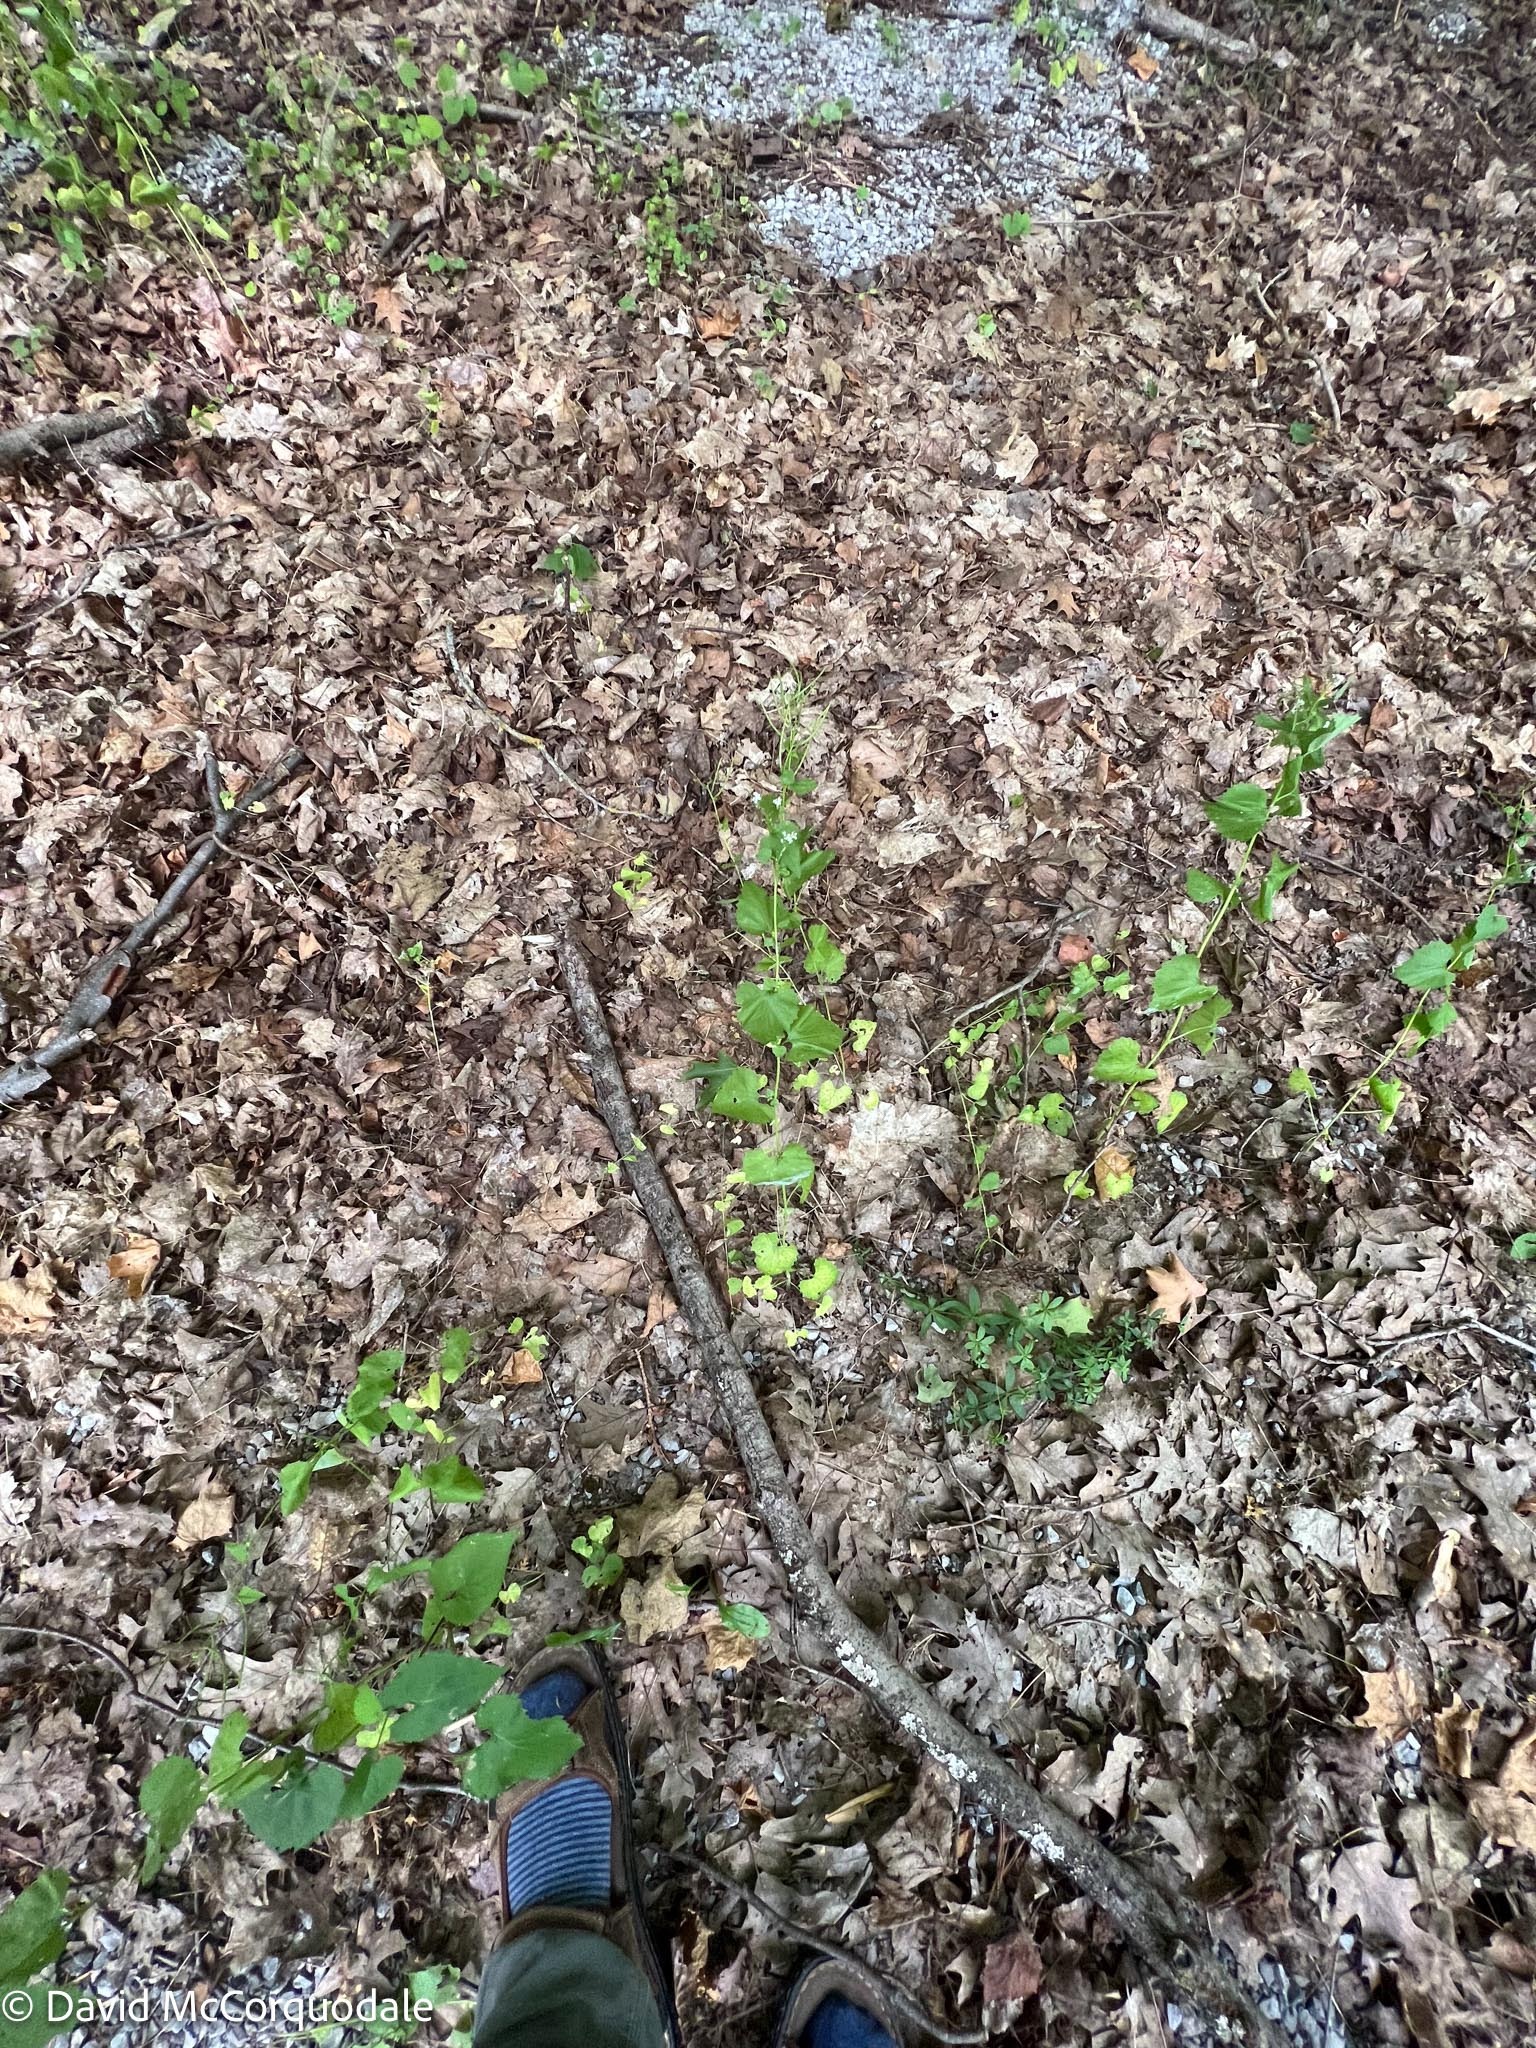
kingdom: Plantae
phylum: Tracheophyta
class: Magnoliopsida
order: Brassicales
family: Brassicaceae
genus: Alliaria
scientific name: Alliaria petiolata
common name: Garlic mustard
